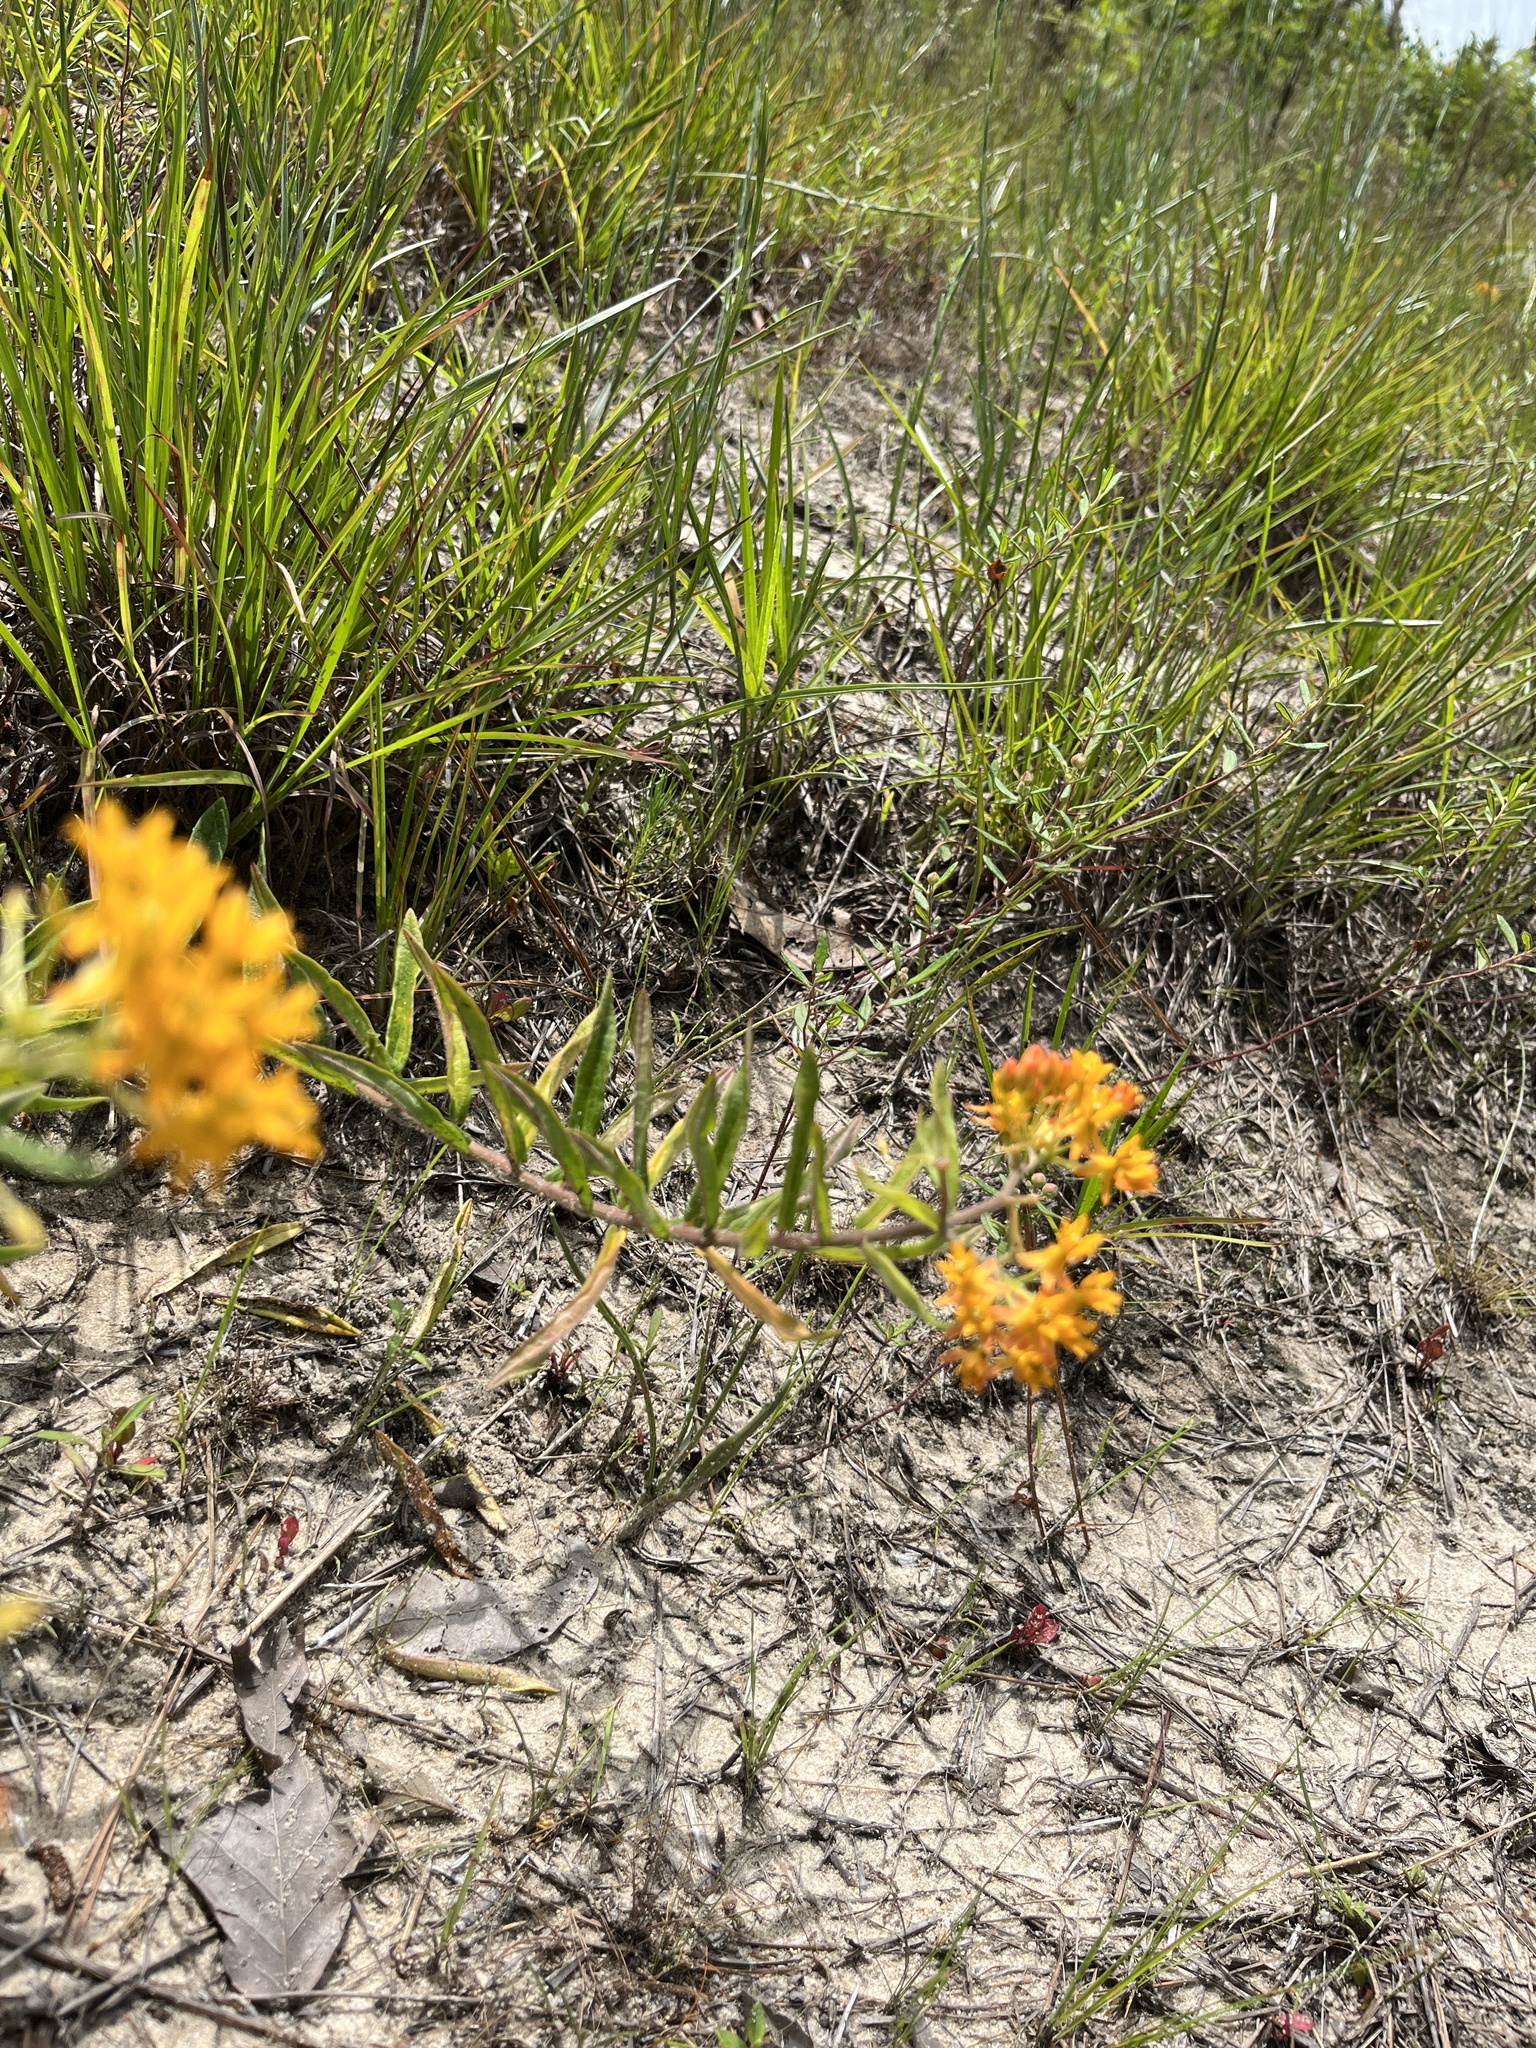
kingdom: Plantae
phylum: Tracheophyta
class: Magnoliopsida
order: Gentianales
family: Apocynaceae
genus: Asclepias
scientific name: Asclepias tuberosa
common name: Butterfly milkweed
